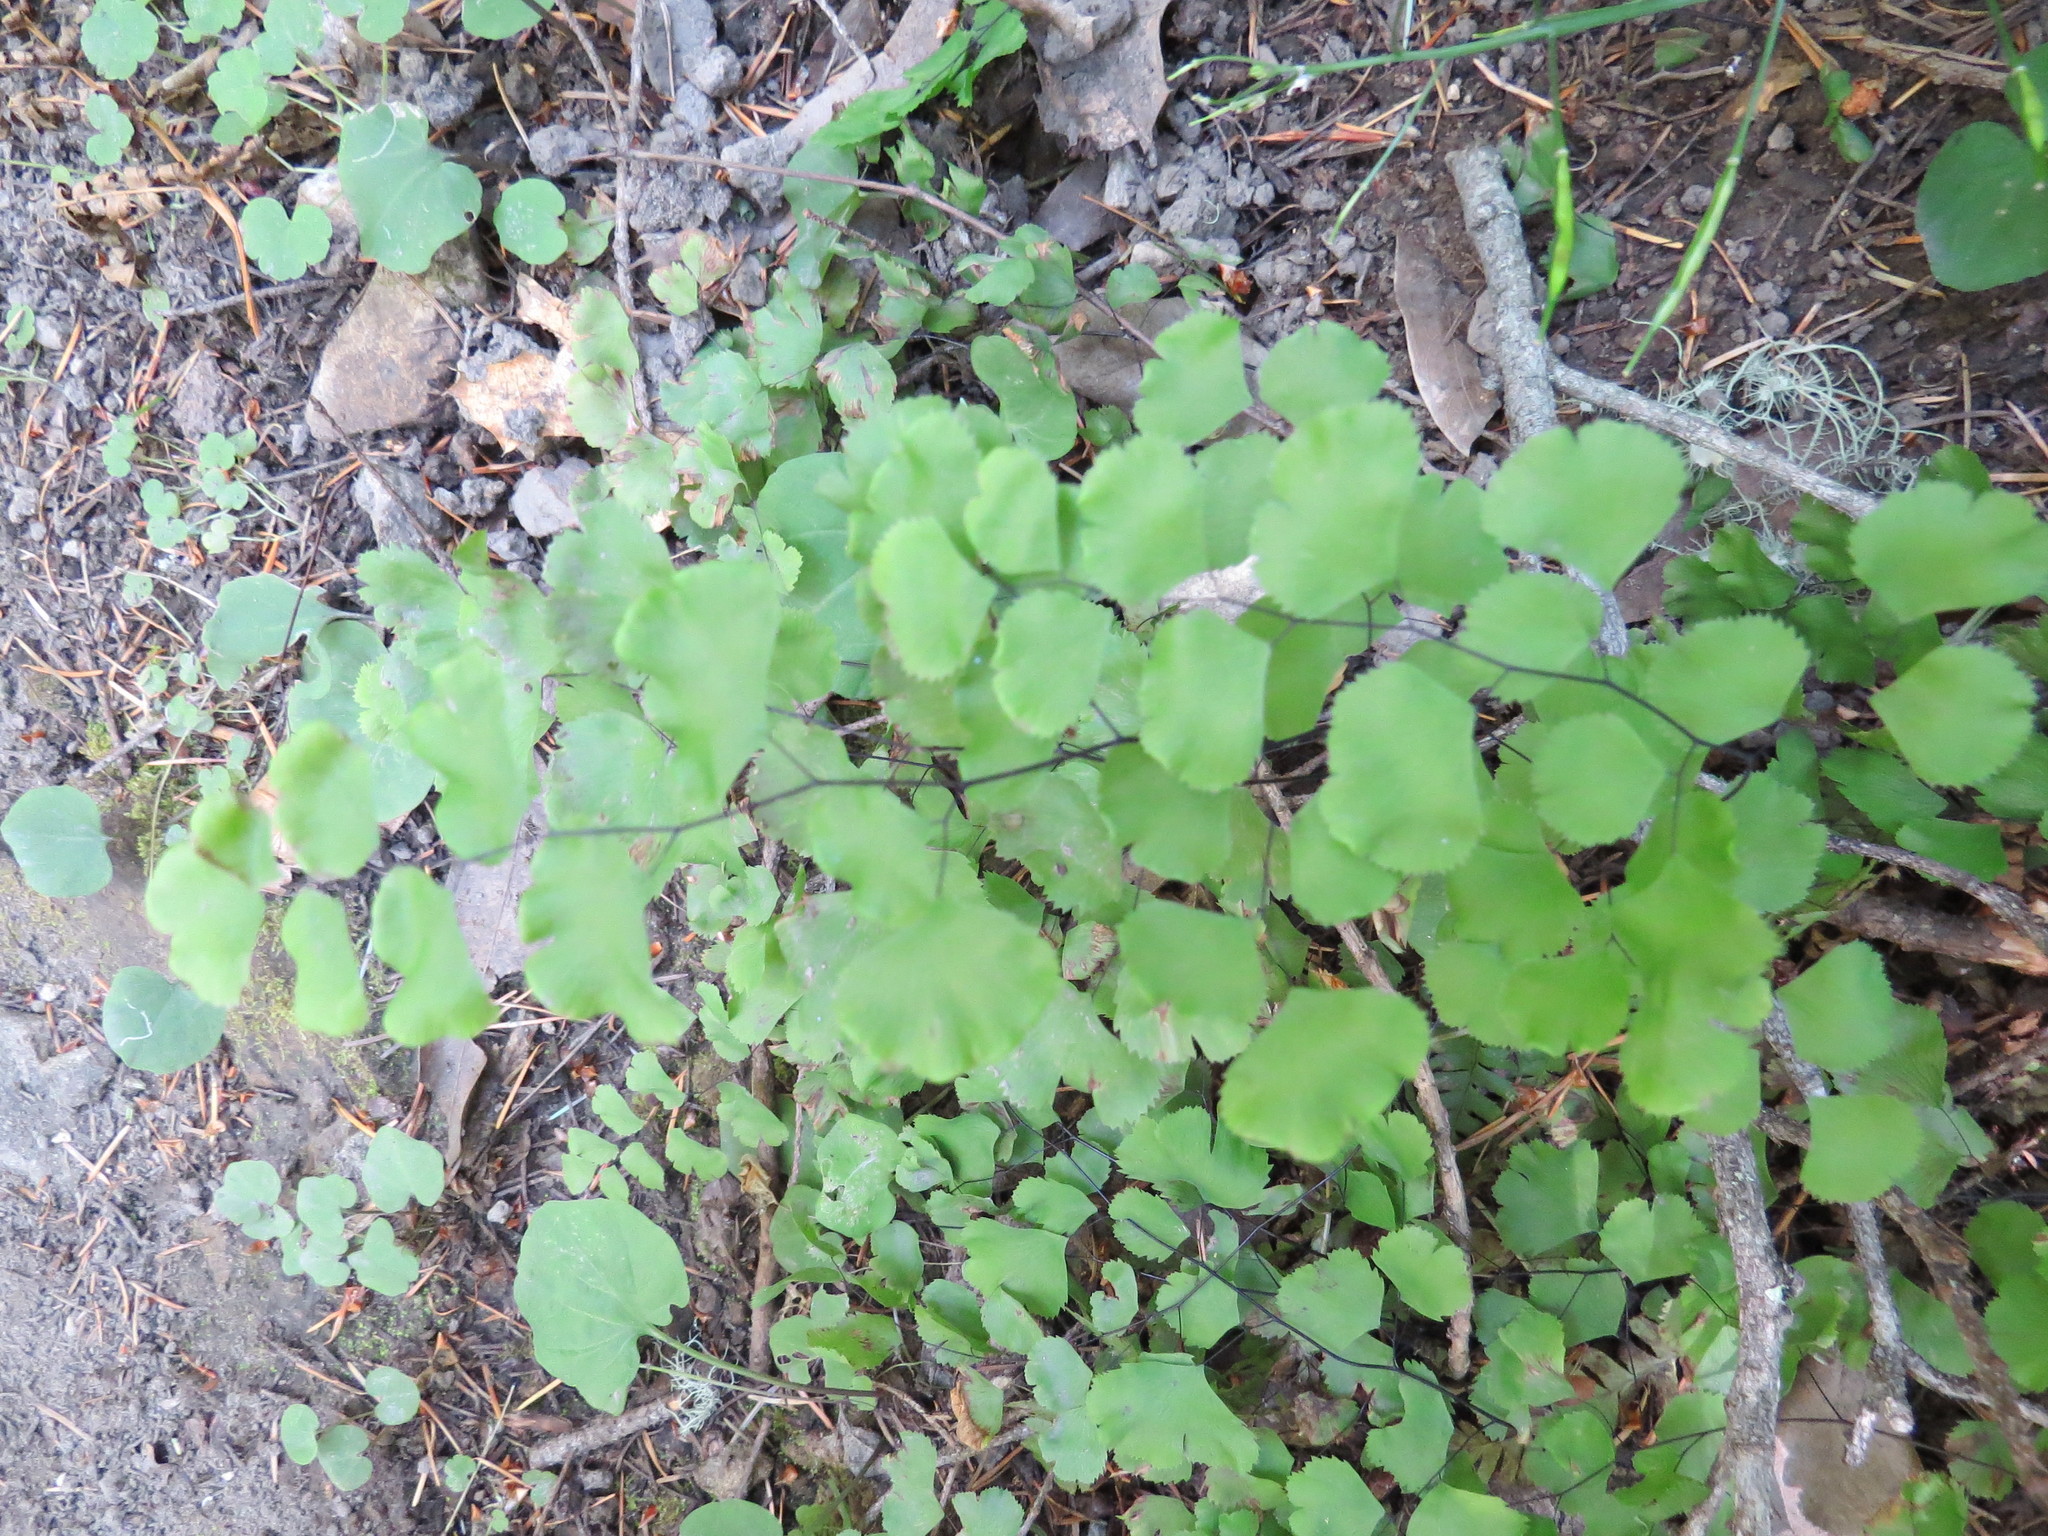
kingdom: Plantae
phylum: Tracheophyta
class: Polypodiopsida
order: Polypodiales
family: Pteridaceae
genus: Adiantum
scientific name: Adiantum jordanii
